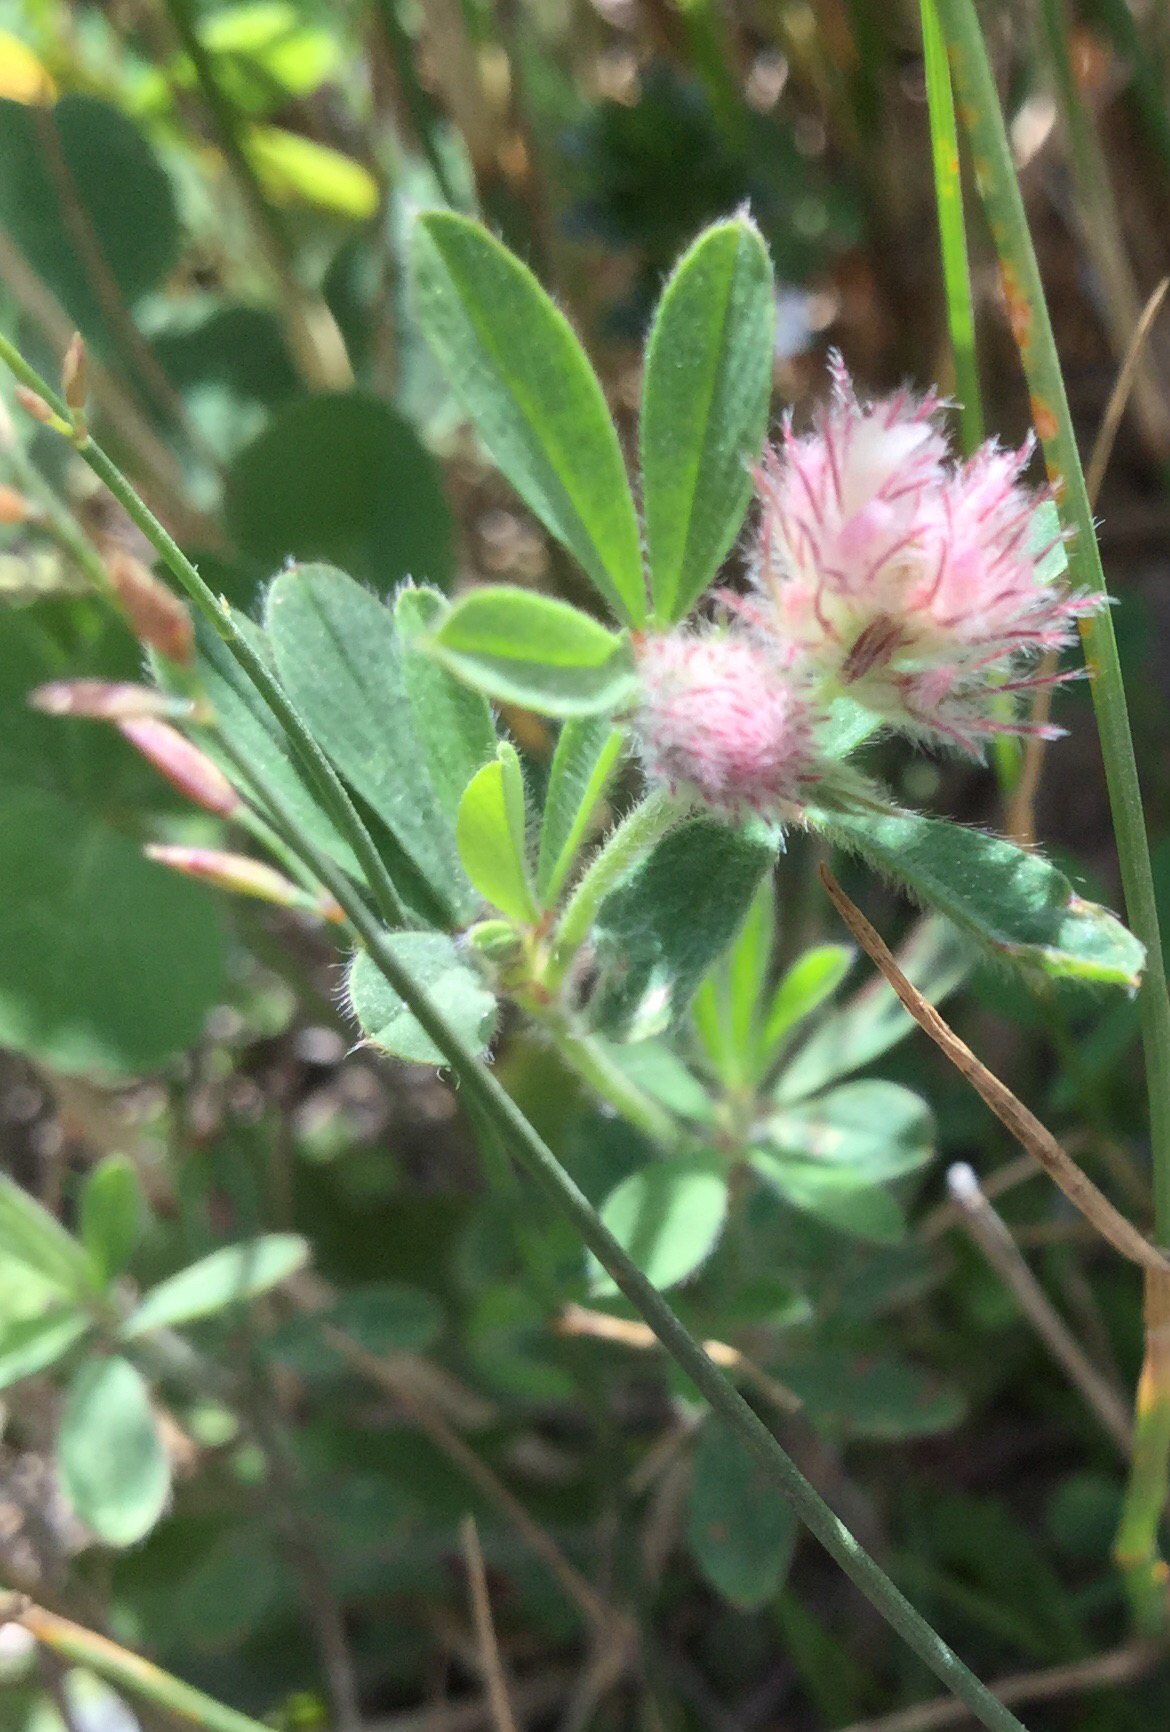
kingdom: Plantae
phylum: Tracheophyta
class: Magnoliopsida
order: Fabales
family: Fabaceae
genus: Trifolium
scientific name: Trifolium arvense
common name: Hare's-foot clover
